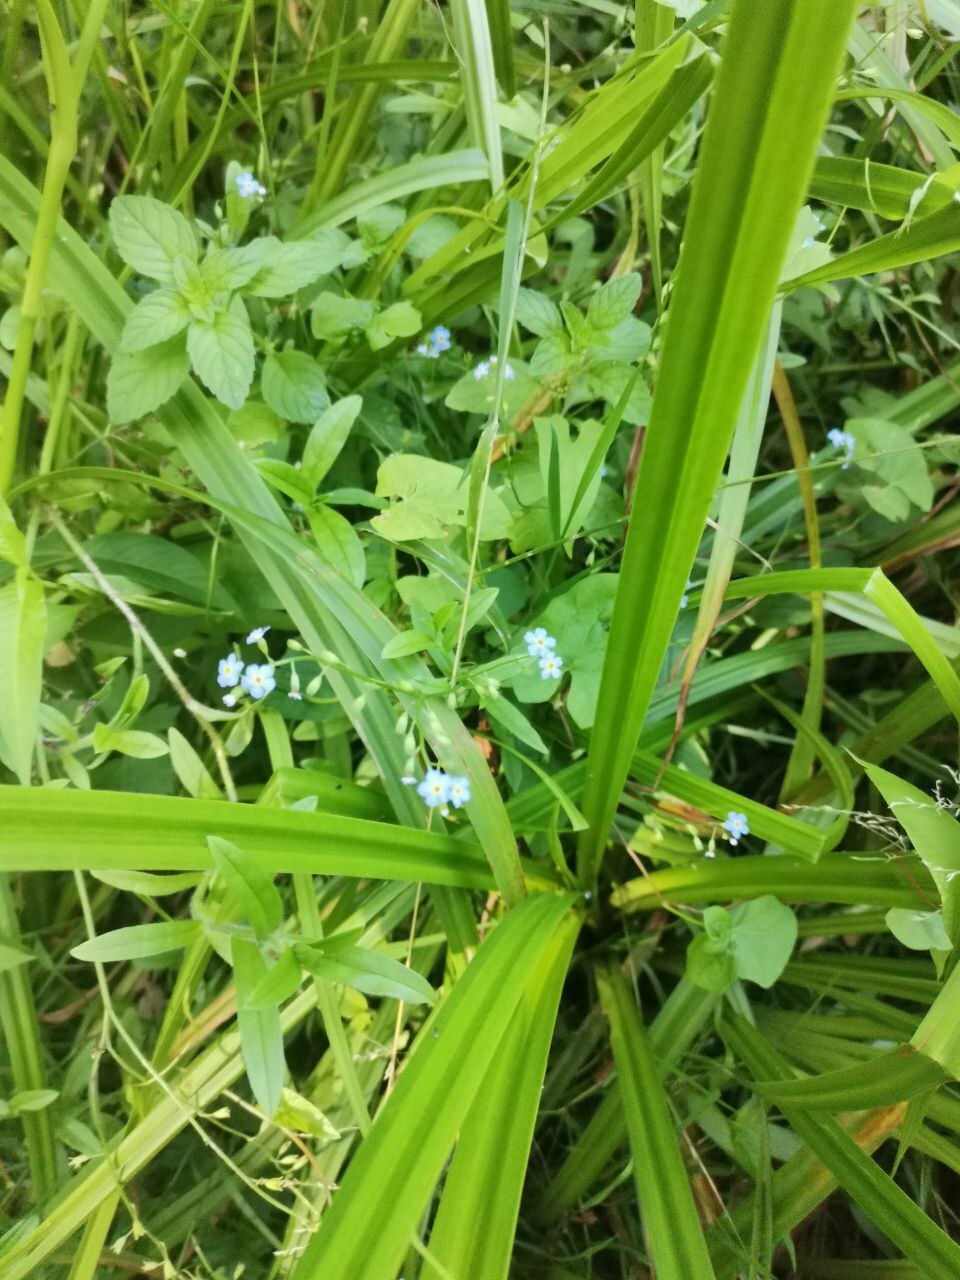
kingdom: Plantae
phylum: Tracheophyta
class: Magnoliopsida
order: Boraginales
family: Boraginaceae
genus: Myosotis
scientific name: Myosotis scorpioides
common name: Water forget-me-not
